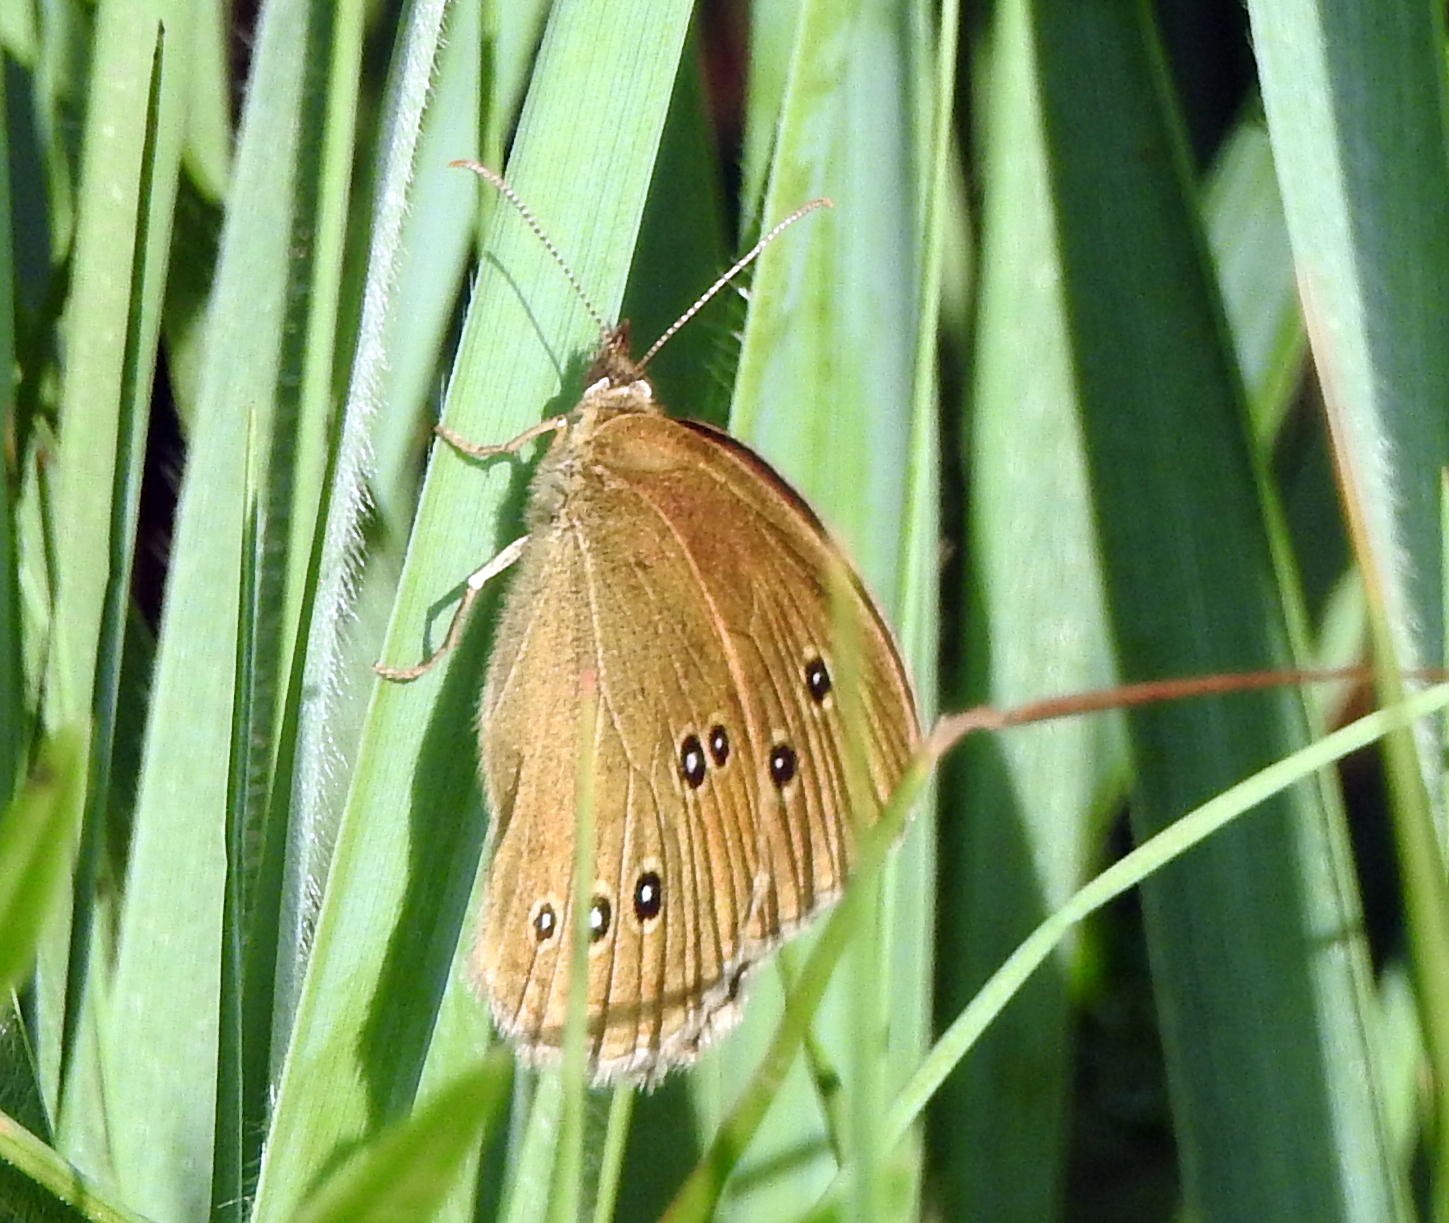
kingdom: Animalia
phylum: Arthropoda
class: Insecta
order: Lepidoptera
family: Nymphalidae
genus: Aphantopus
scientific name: Aphantopus hyperantus
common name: Ringlet
